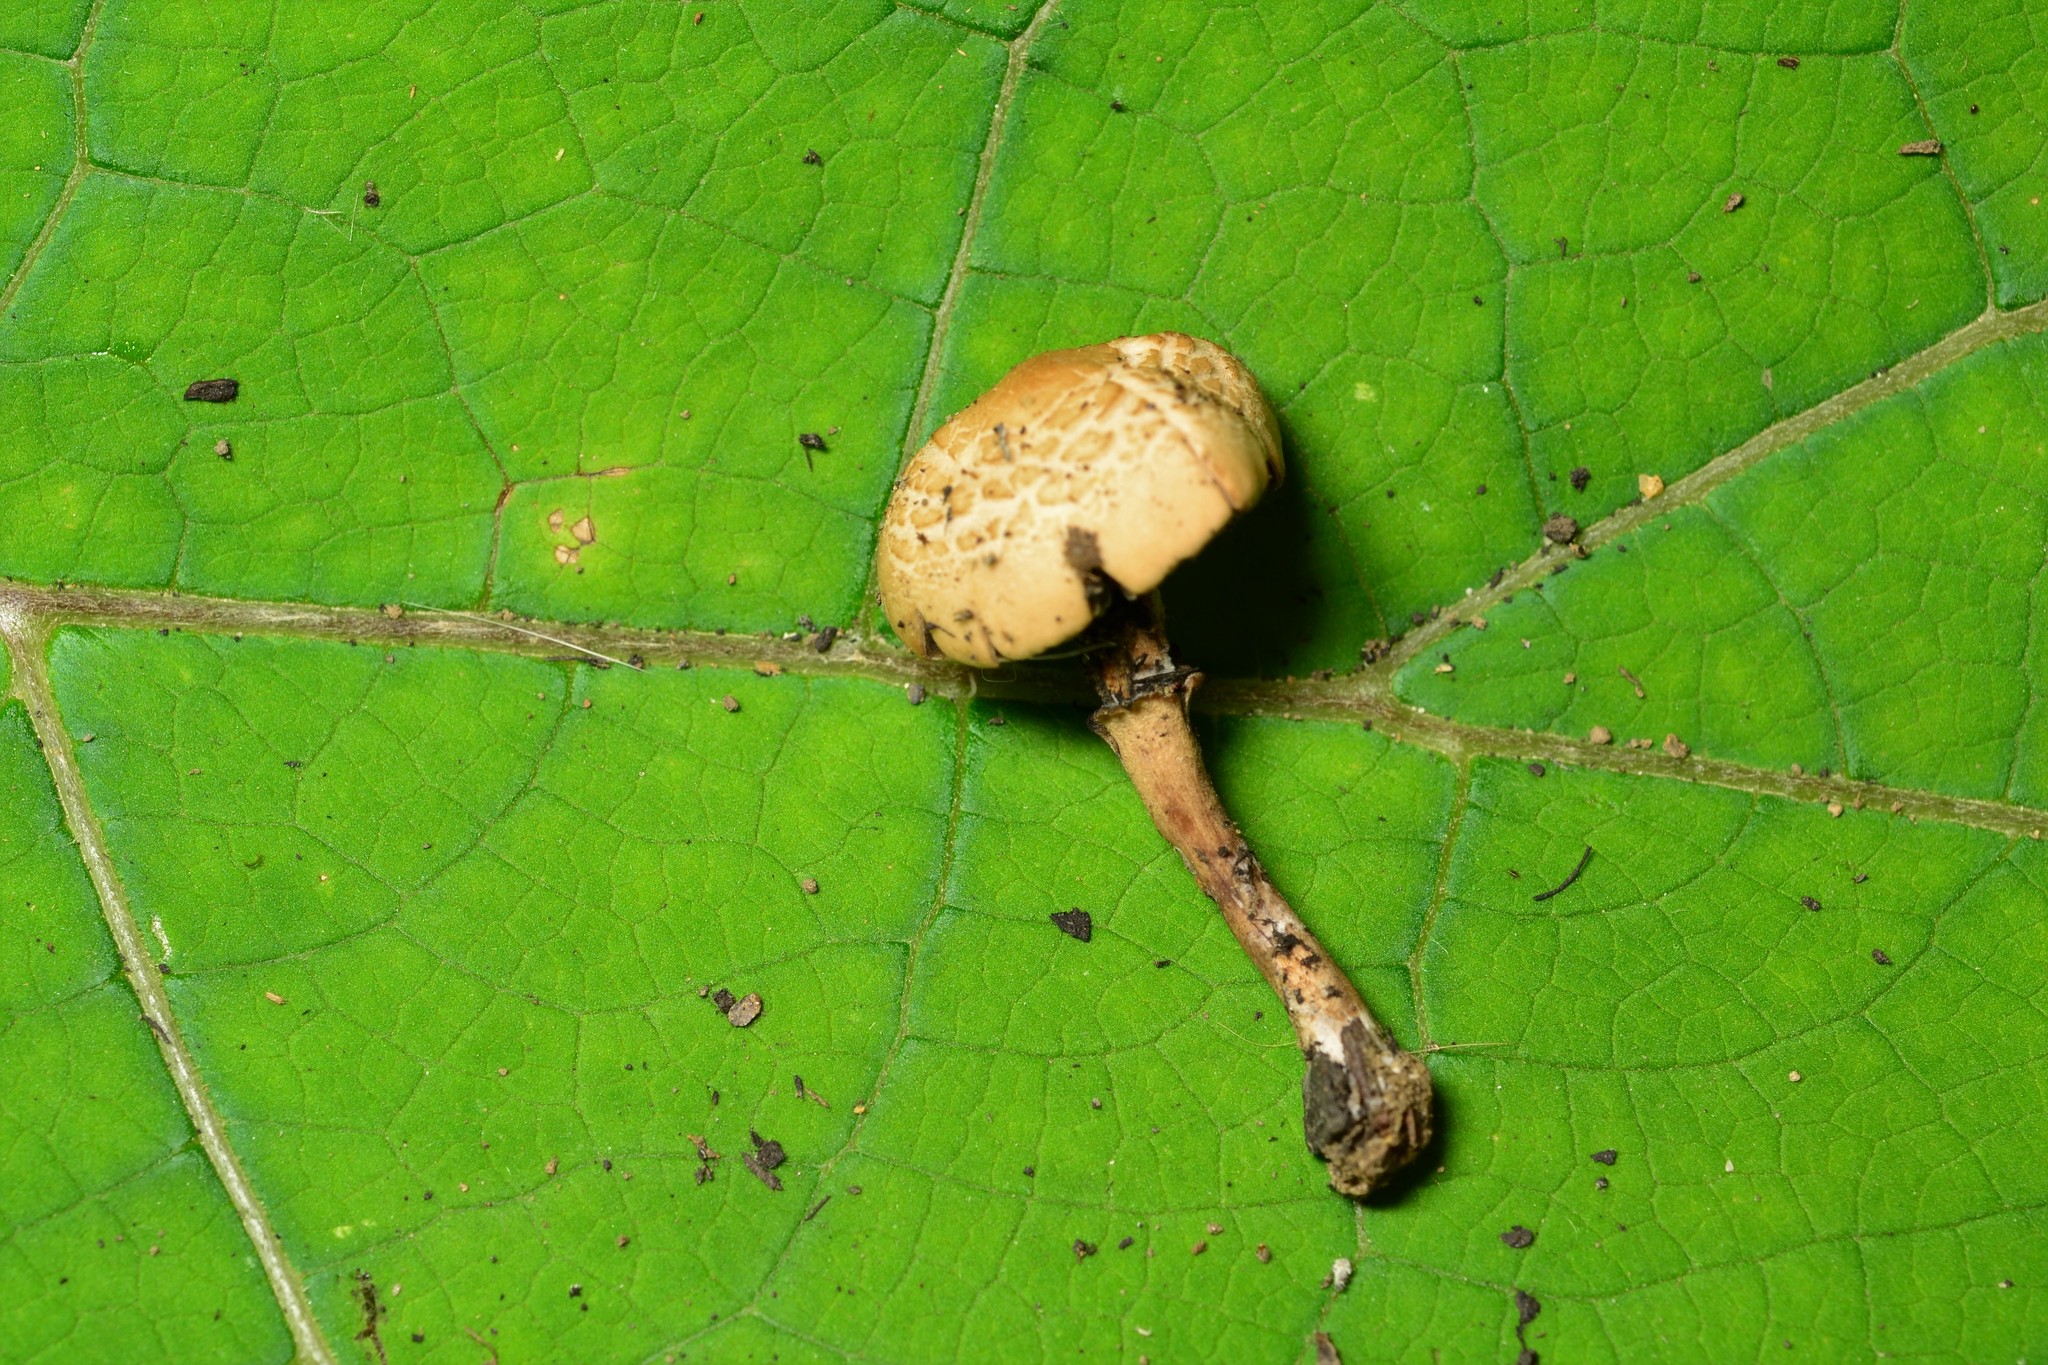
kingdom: Fungi
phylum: Basidiomycota
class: Agaricomycetes
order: Agaricales
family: Bolbitiaceae
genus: Panaeolus
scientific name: Panaeolus cinctulus
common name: Banded mottlegill
